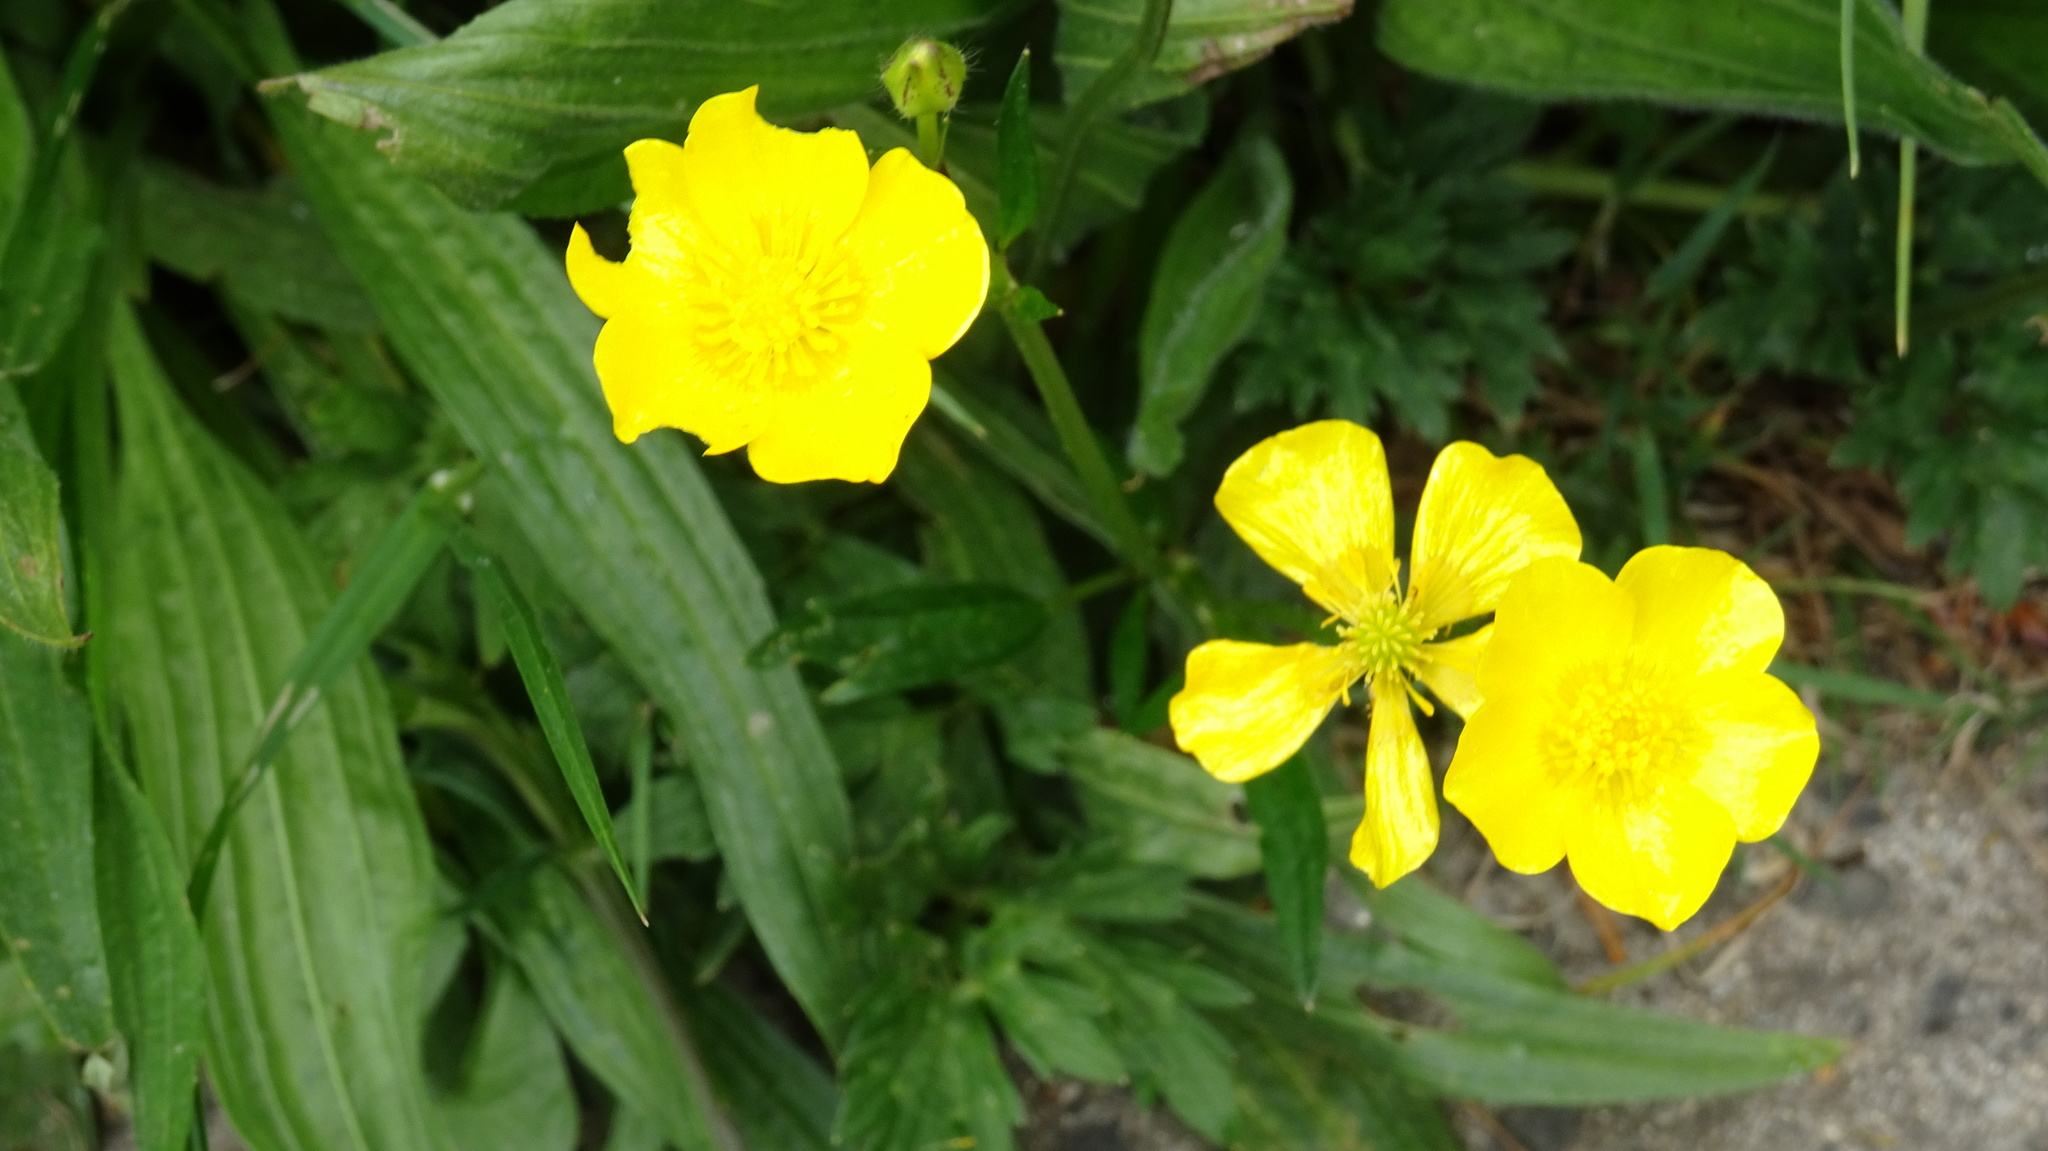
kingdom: Plantae
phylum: Tracheophyta
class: Magnoliopsida
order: Ranunculales
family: Ranunculaceae
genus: Ranunculus
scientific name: Ranunculus bulbosus
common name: Bulbous buttercup
